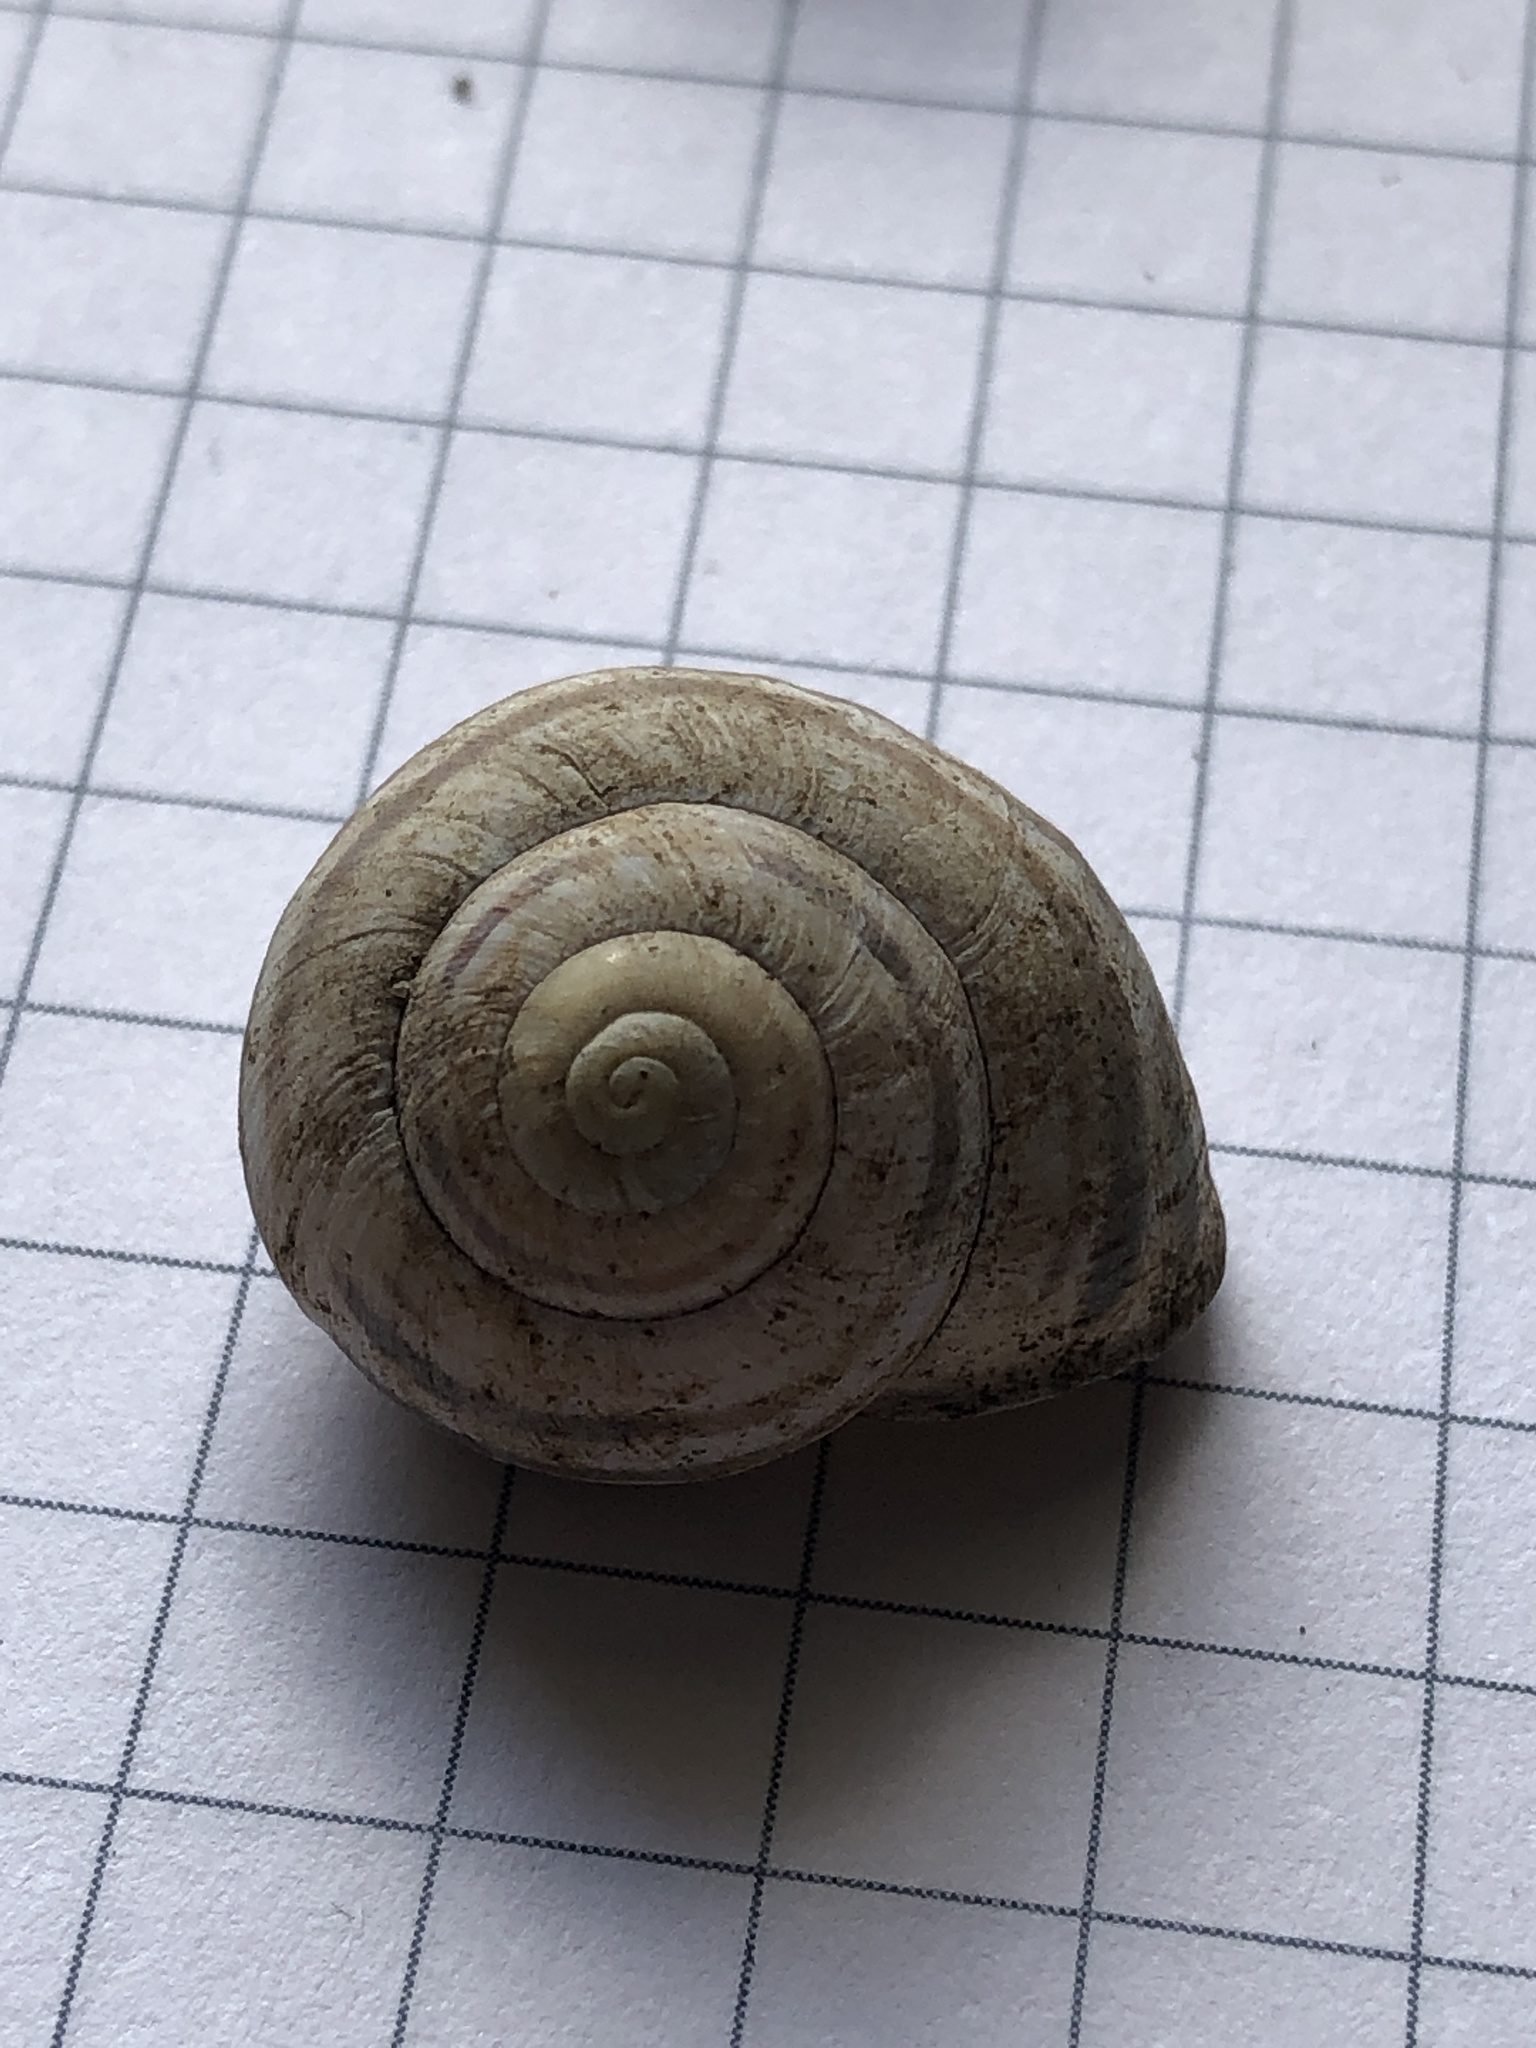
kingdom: Animalia
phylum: Mollusca
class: Gastropoda
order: Stylommatophora
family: Helicidae
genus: Cepaea
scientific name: Cepaea nemoralis
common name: Grovesnail
